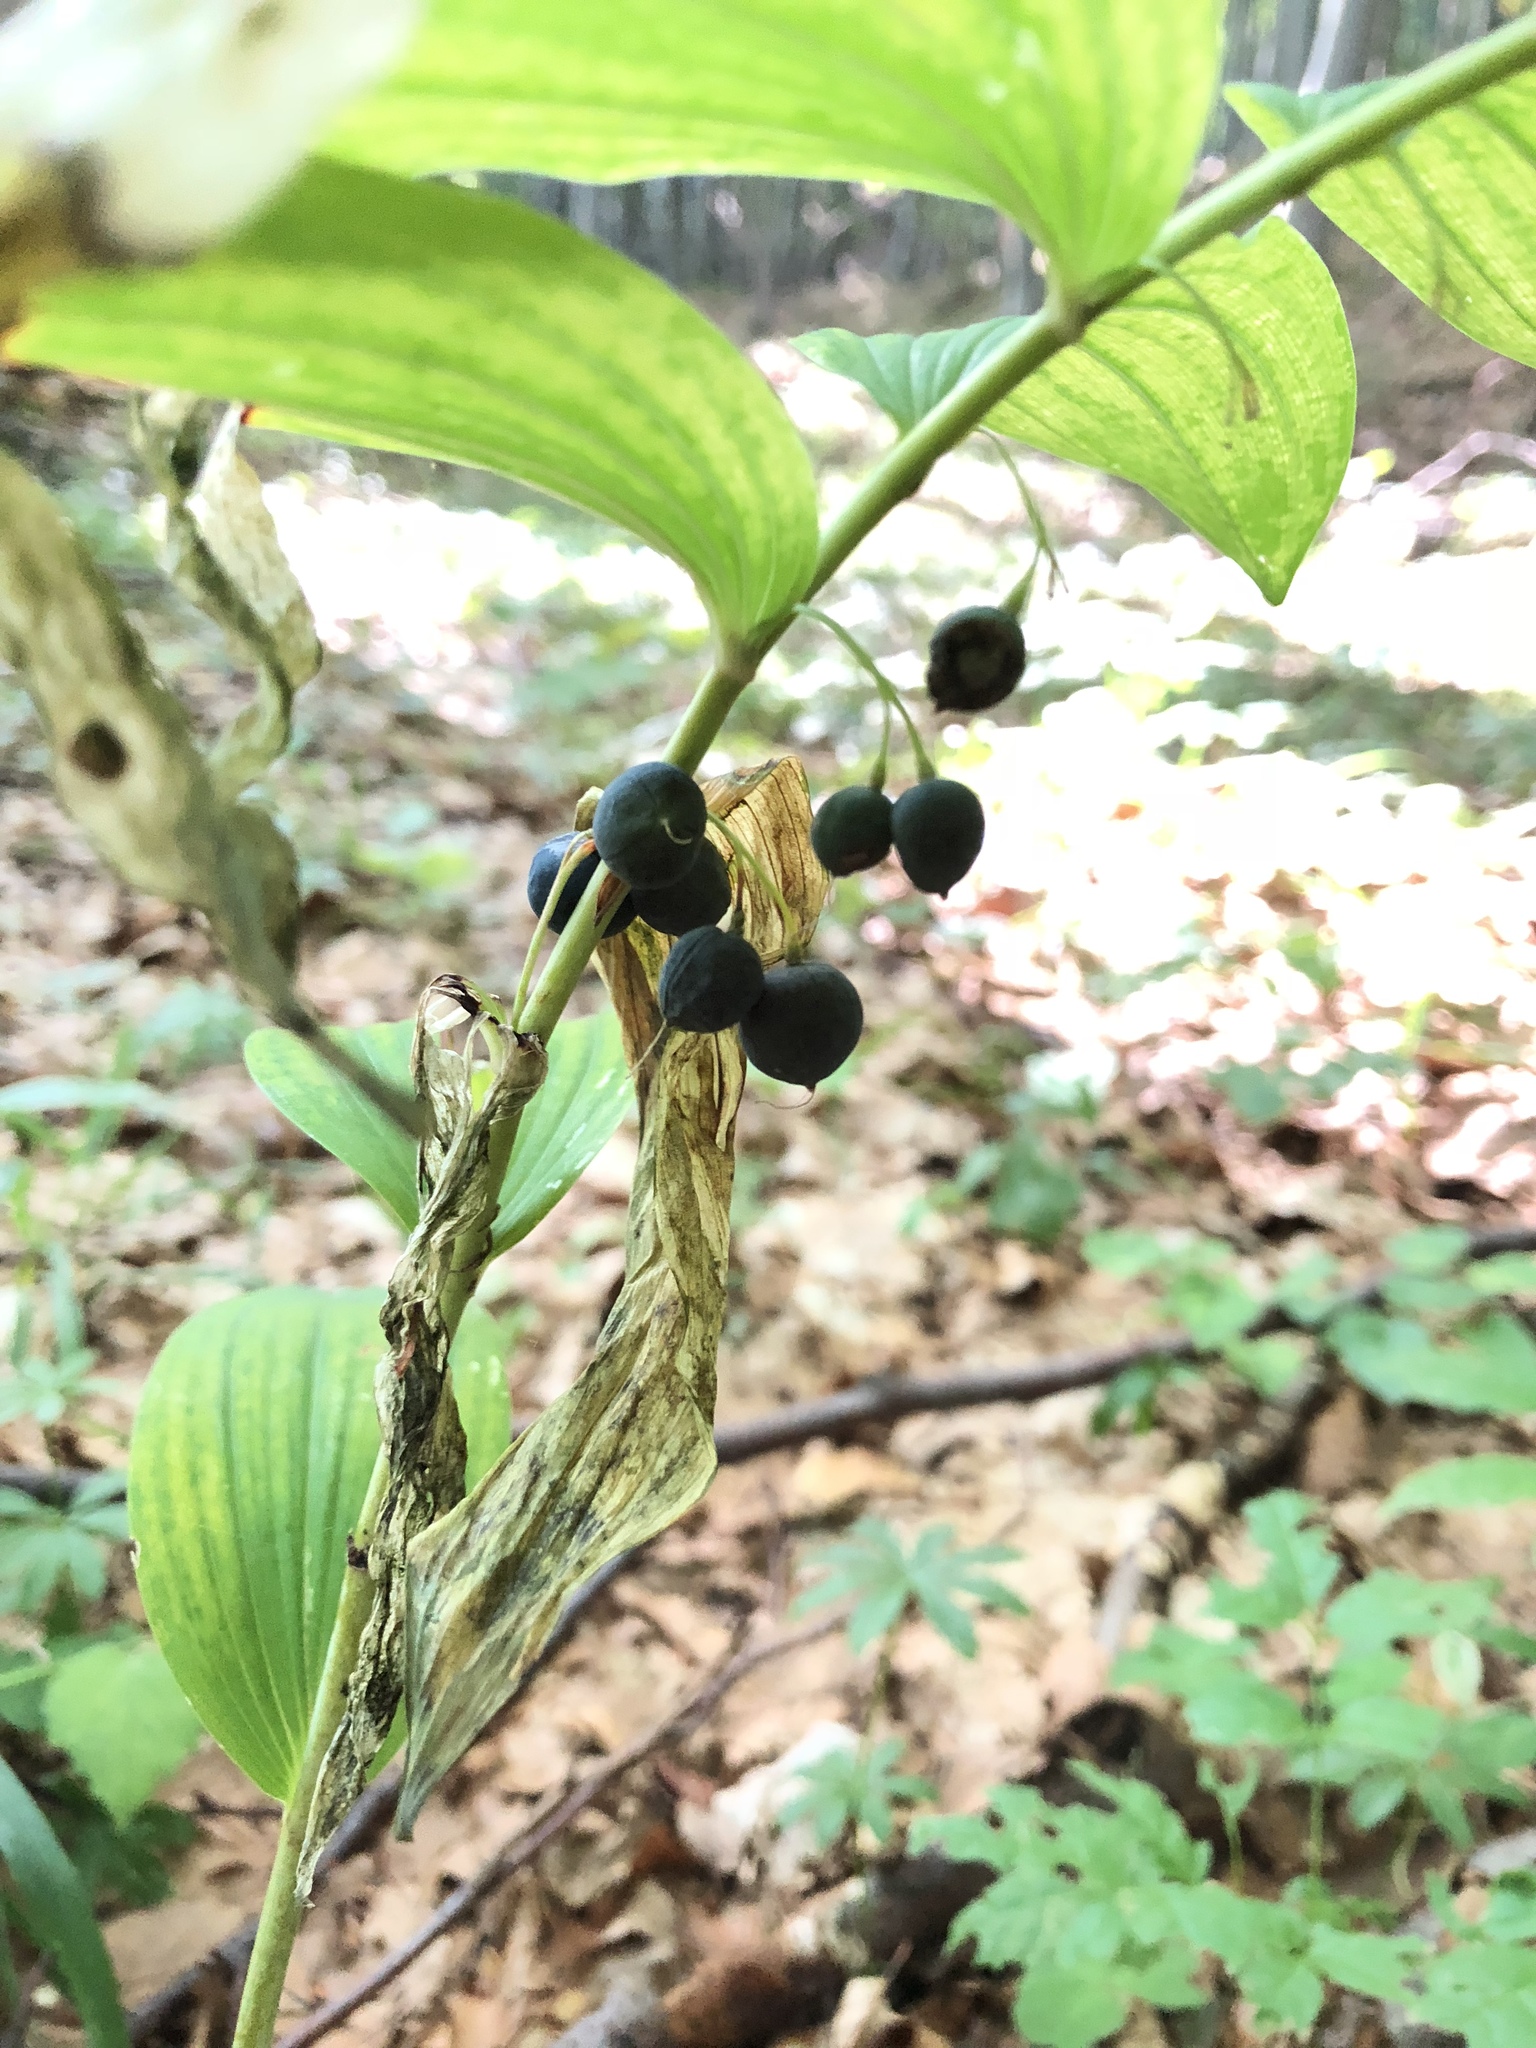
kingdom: Plantae
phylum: Tracheophyta
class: Liliopsida
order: Asparagales
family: Asparagaceae
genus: Polygonatum
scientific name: Polygonatum odoratum
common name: Angular solomon's-seal
